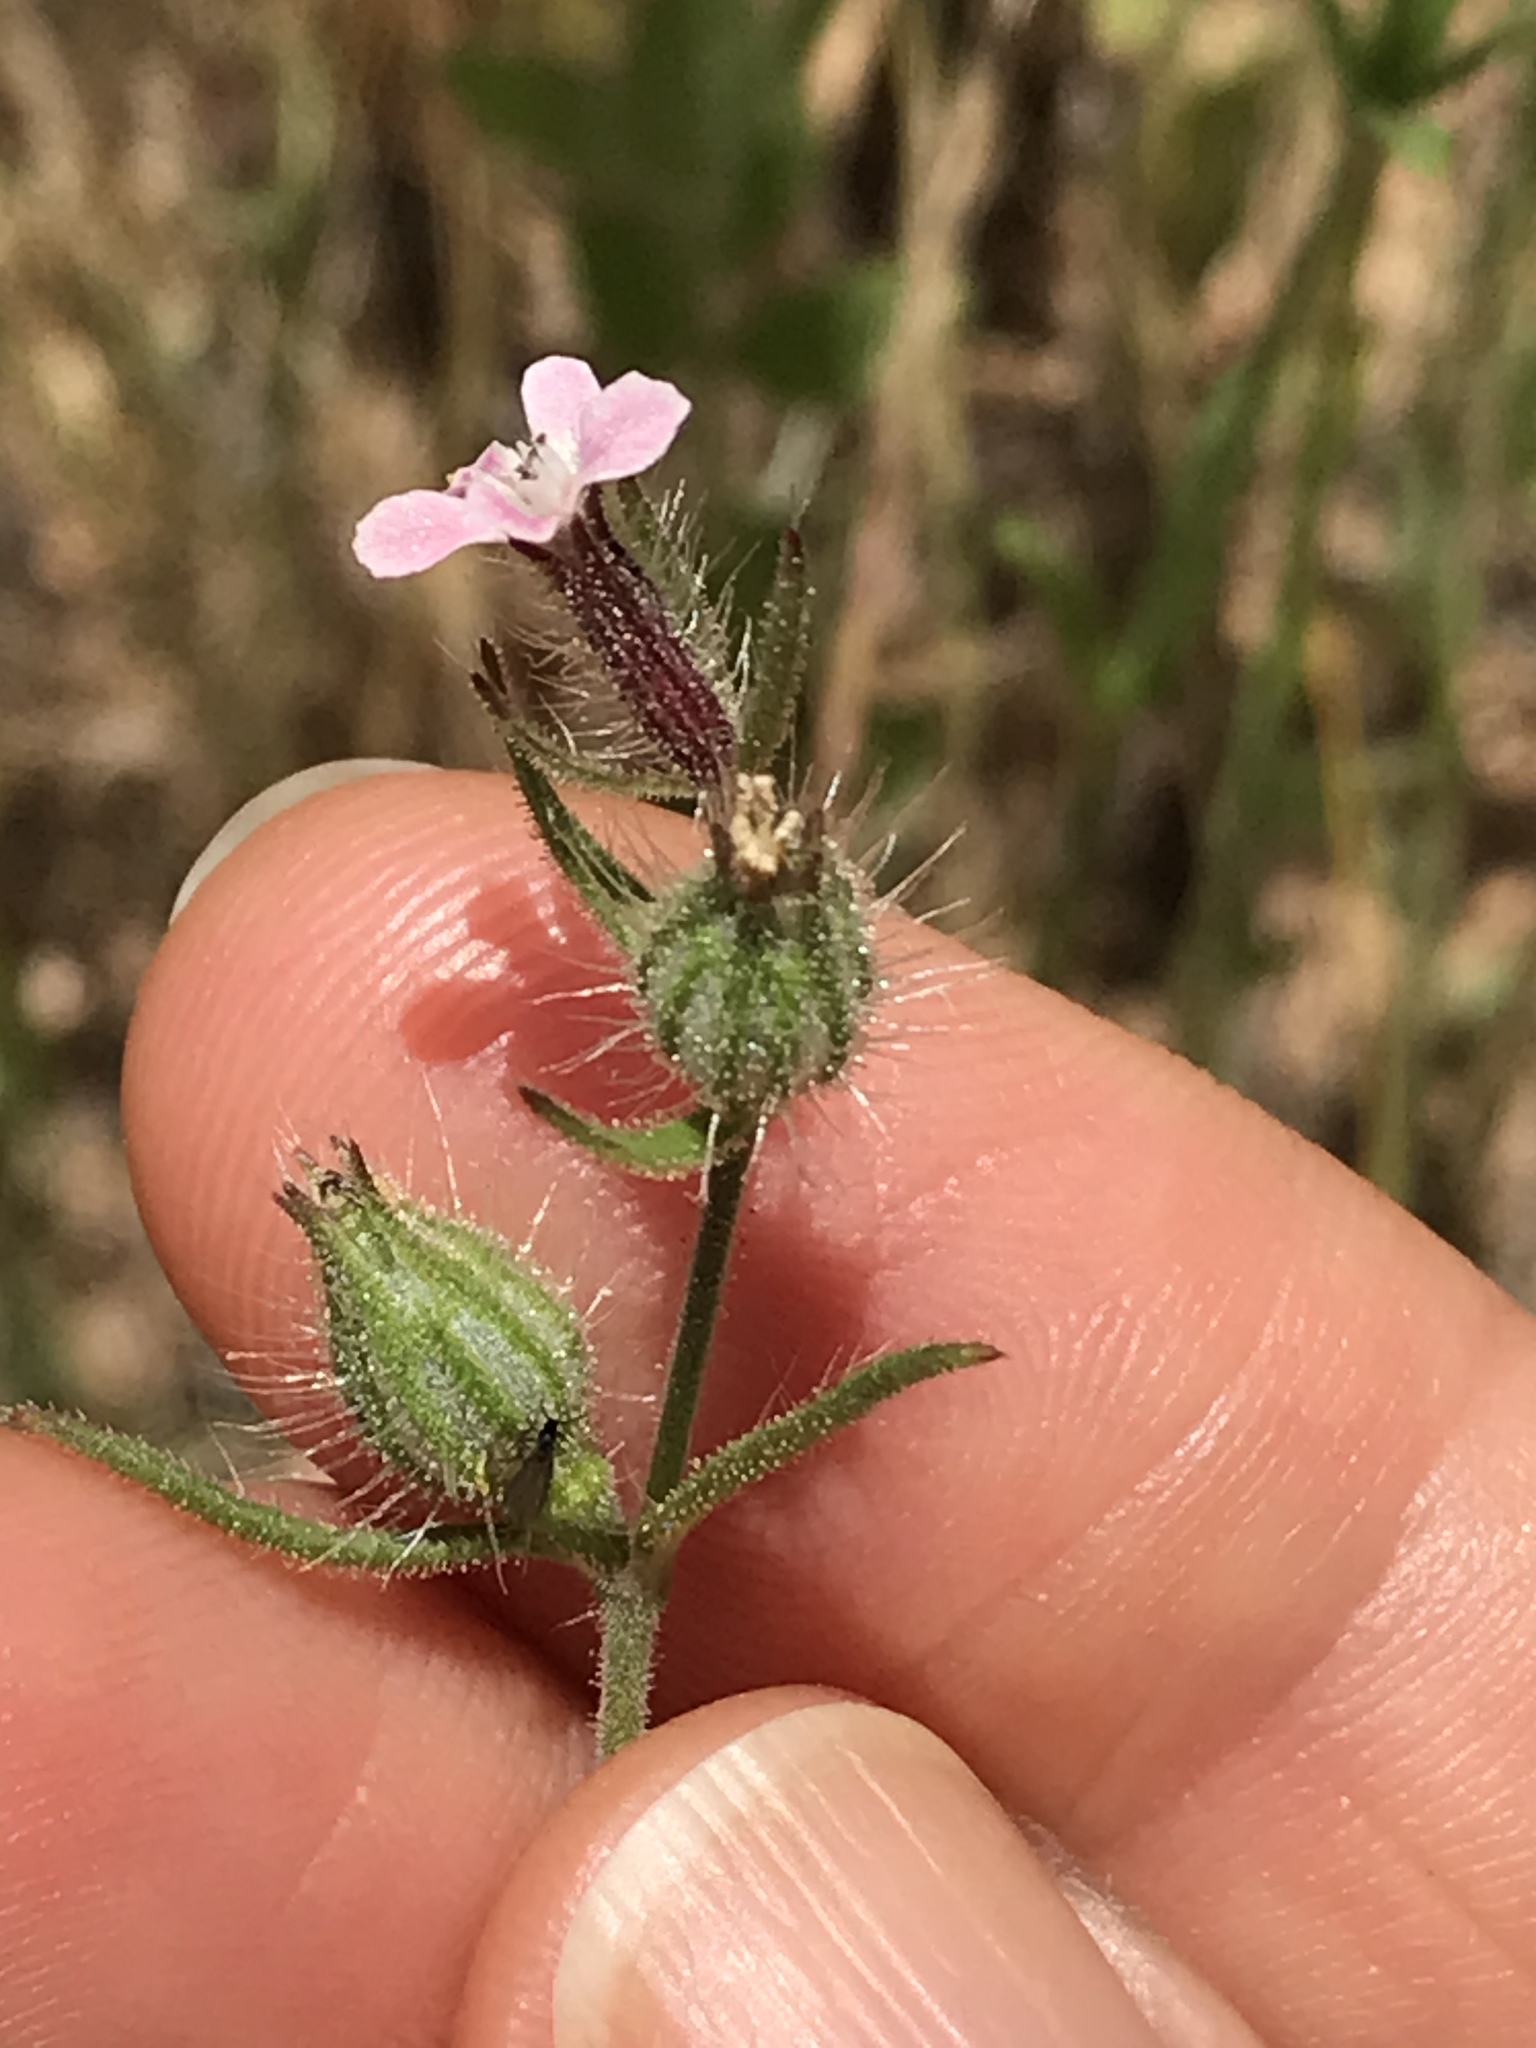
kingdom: Plantae
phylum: Tracheophyta
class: Magnoliopsida
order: Caryophyllales
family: Caryophyllaceae
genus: Silene
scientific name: Silene gallica
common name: Small-flowered catchfly
